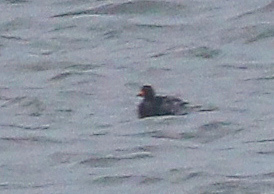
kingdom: Animalia
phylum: Chordata
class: Aves
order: Anseriformes
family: Anatidae
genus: Melanitta
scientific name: Melanitta americana
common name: Black scoter
